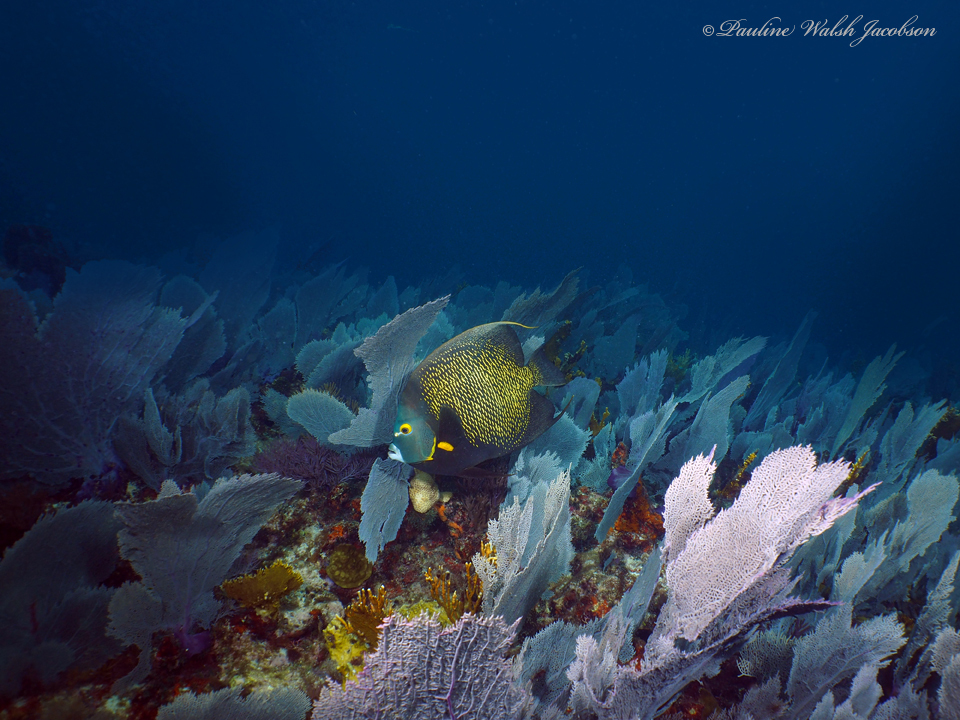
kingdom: Animalia
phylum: Chordata
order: Perciformes
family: Pomacanthidae
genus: Pomacanthus
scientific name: Pomacanthus paru
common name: French angelfish
